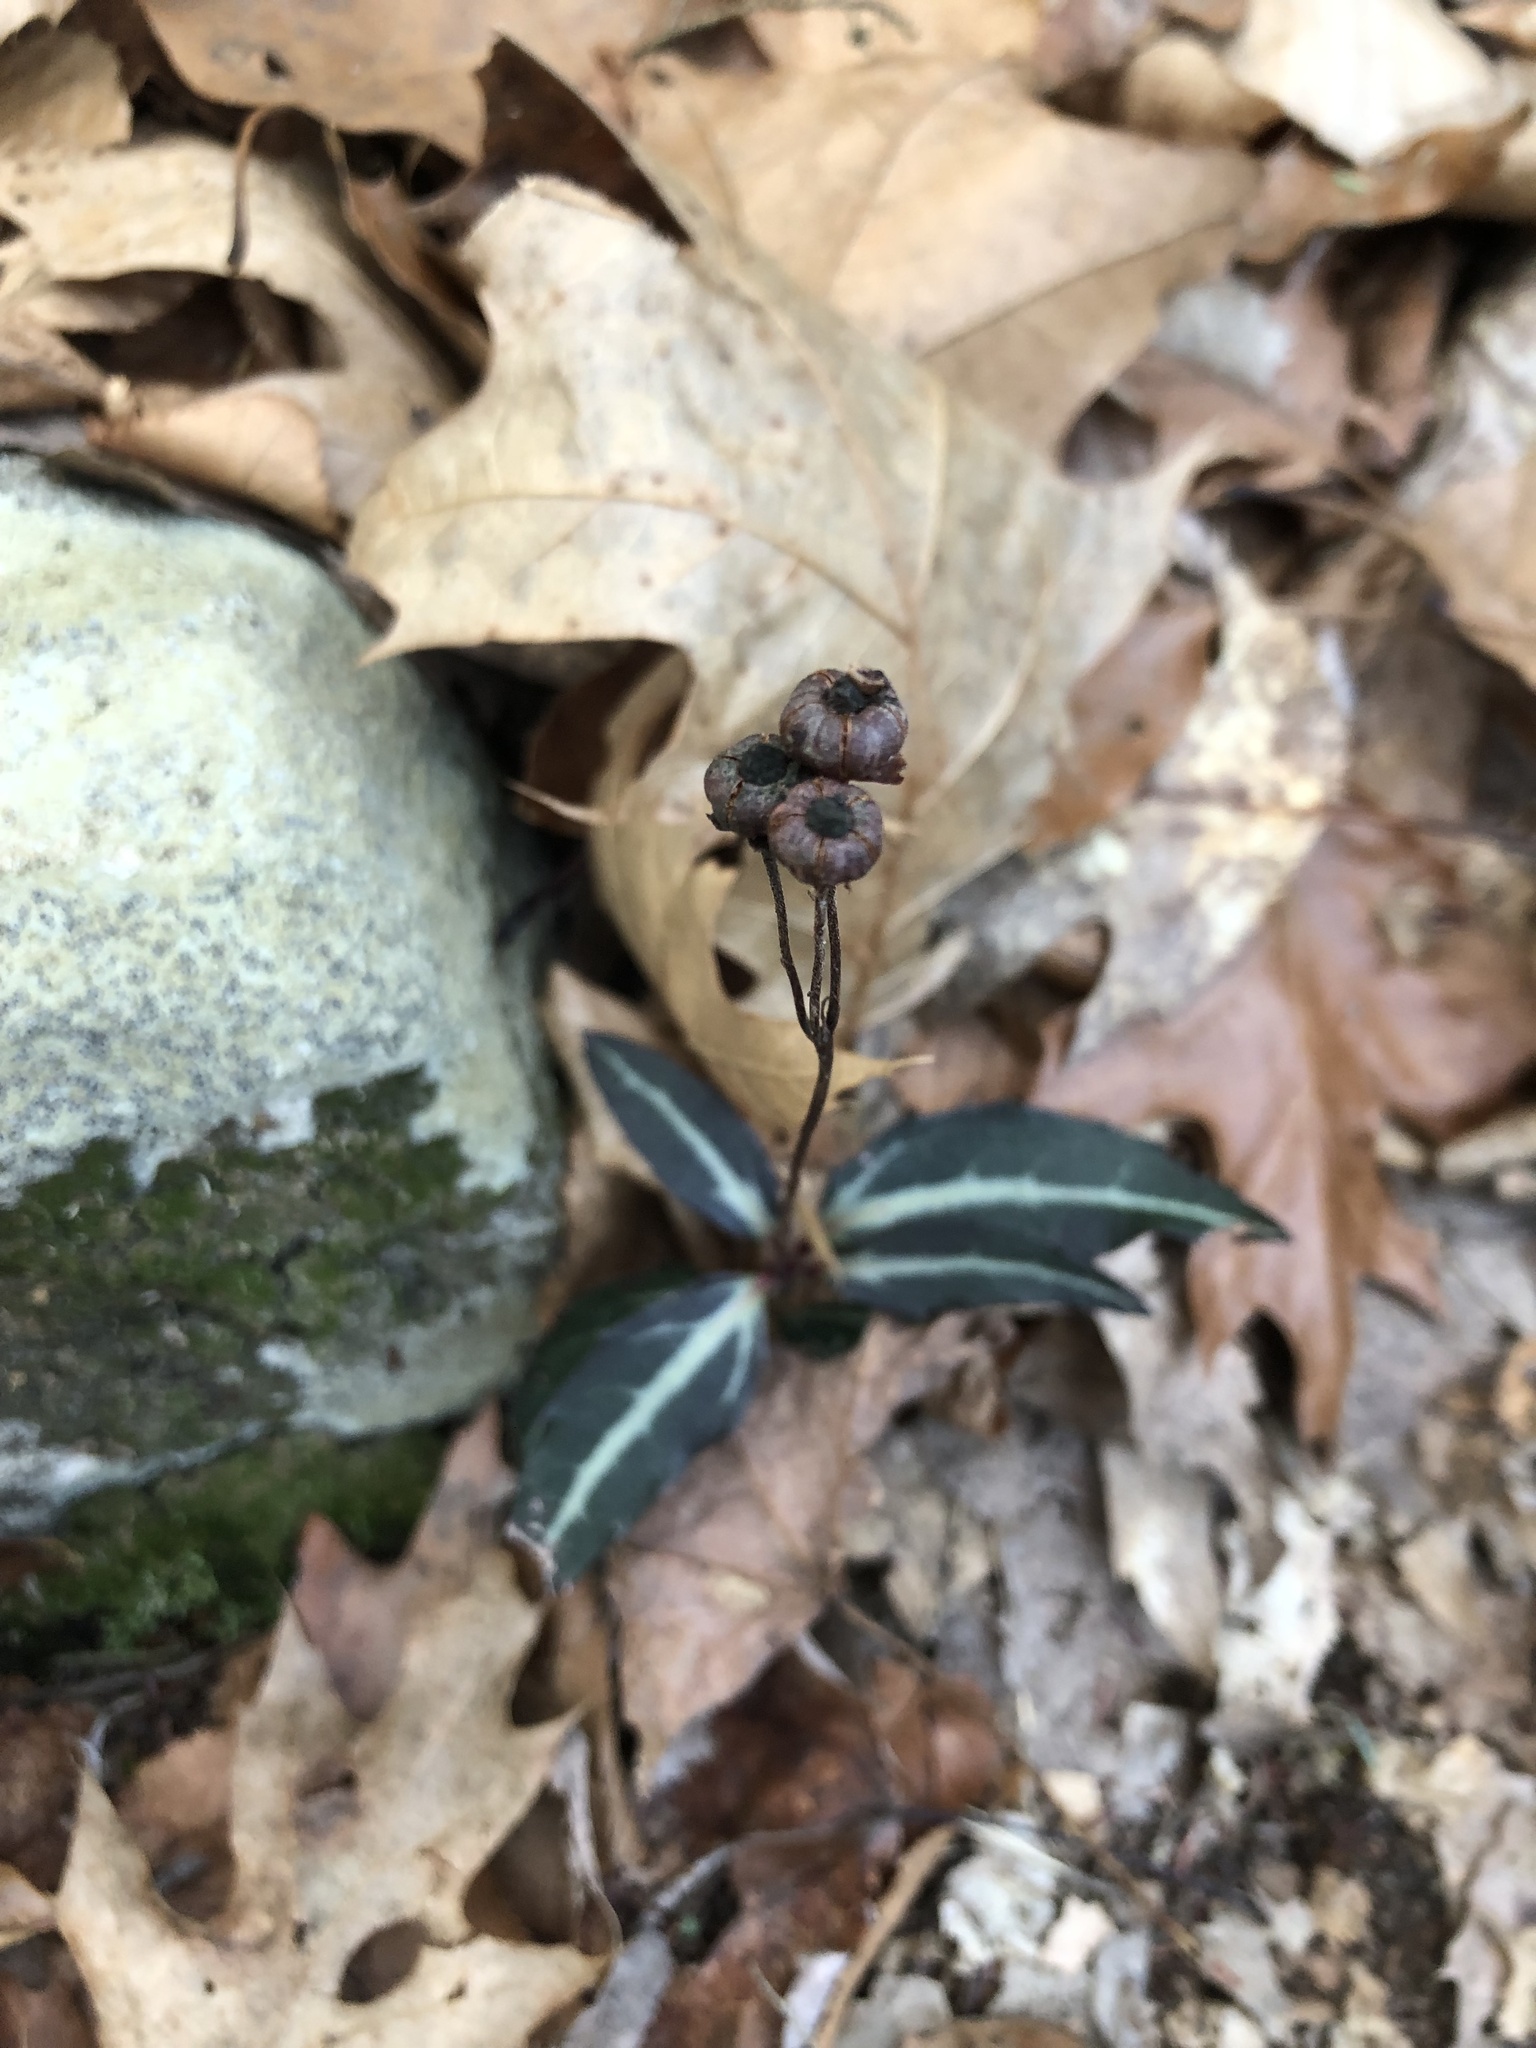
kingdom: Plantae
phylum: Tracheophyta
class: Magnoliopsida
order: Ericales
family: Ericaceae
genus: Chimaphila
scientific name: Chimaphila maculata
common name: Spotted pipsissewa
